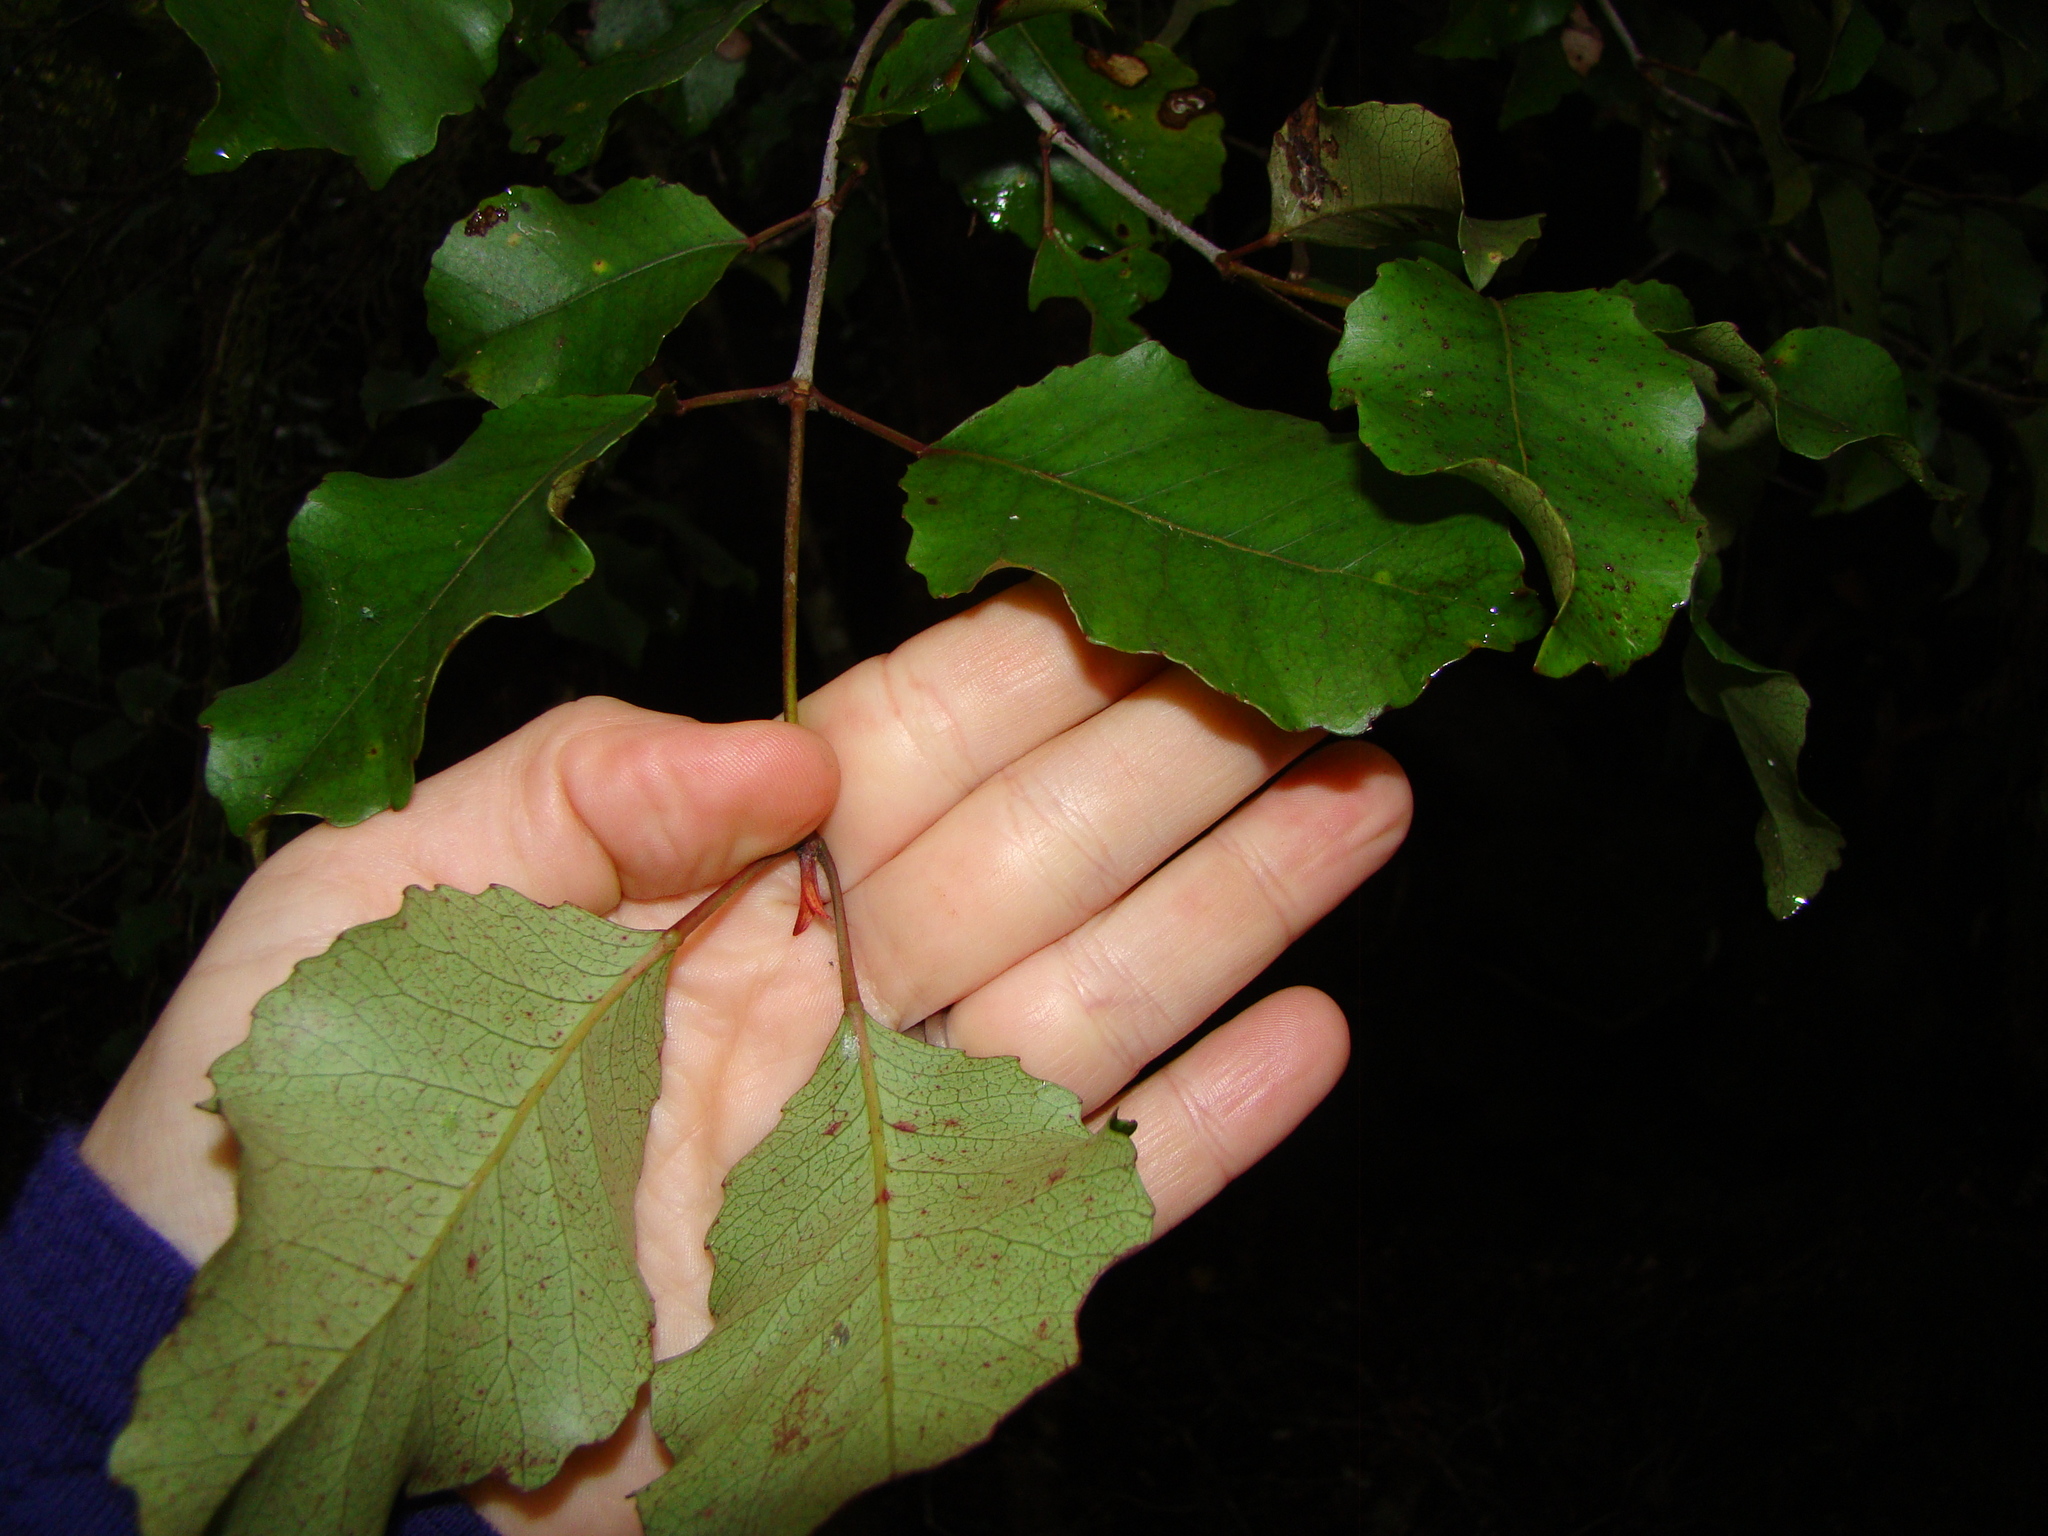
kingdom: Plantae
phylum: Tracheophyta
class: Magnoliopsida
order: Oxalidales
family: Cunoniaceae
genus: Pterophylla
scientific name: Pterophylla racemosa
